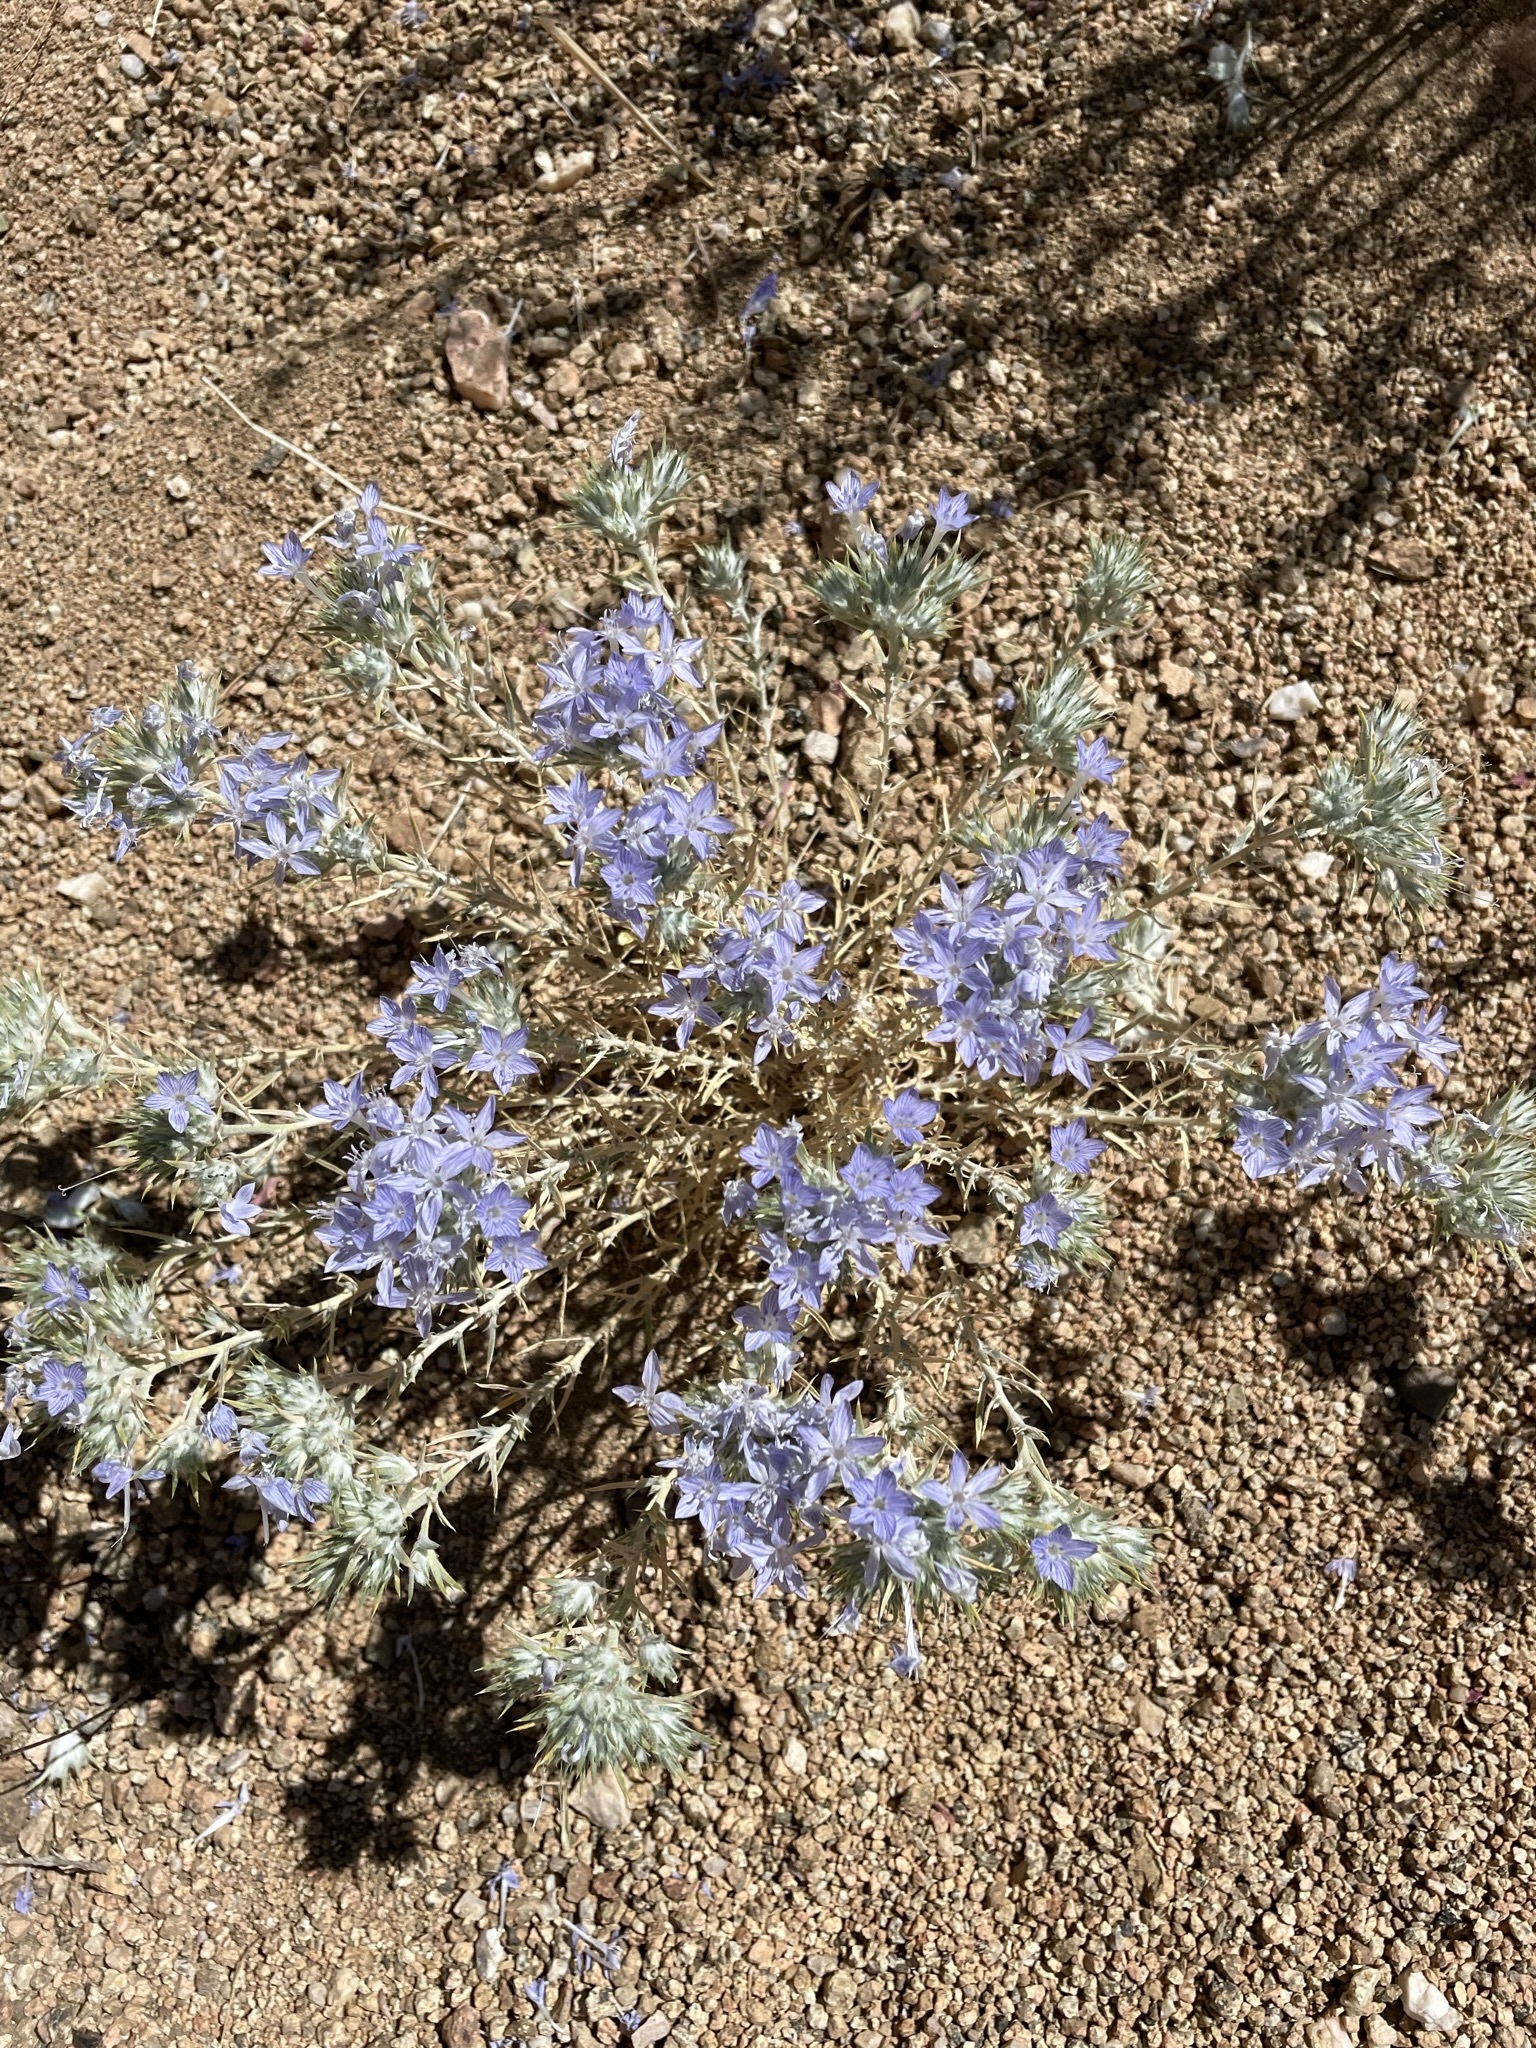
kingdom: Plantae
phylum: Tracheophyta
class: Magnoliopsida
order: Ericales
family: Polemoniaceae
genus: Eriastrum
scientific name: Eriastrum densifolium
